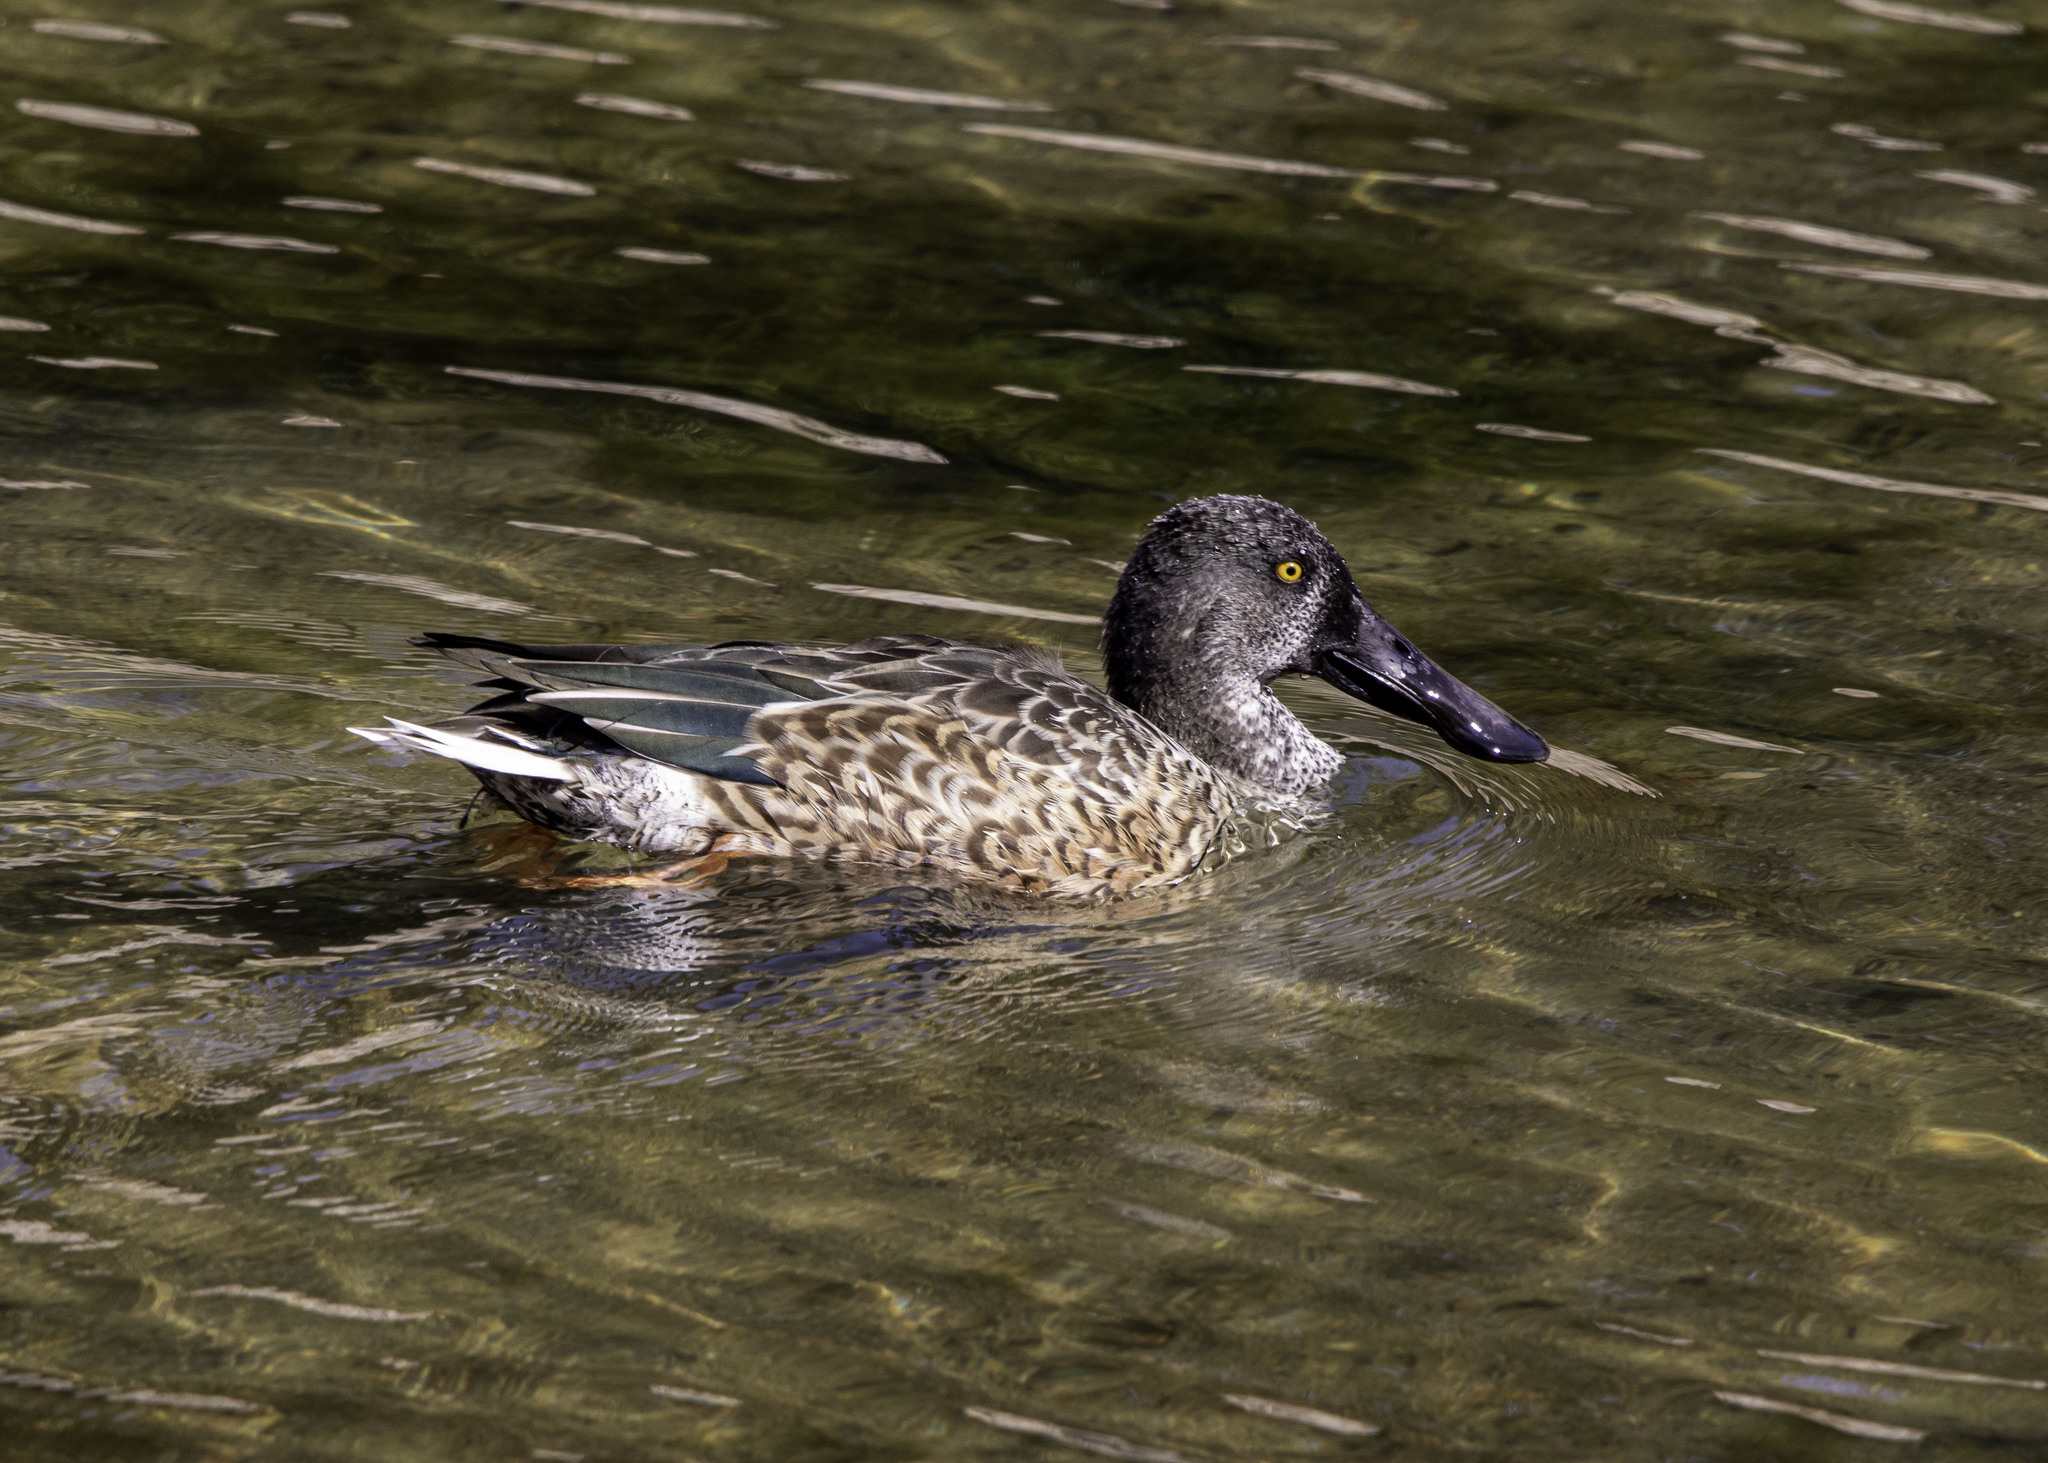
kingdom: Animalia
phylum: Chordata
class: Aves
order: Anseriformes
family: Anatidae
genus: Spatula
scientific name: Spatula clypeata
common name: Northern shoveler
